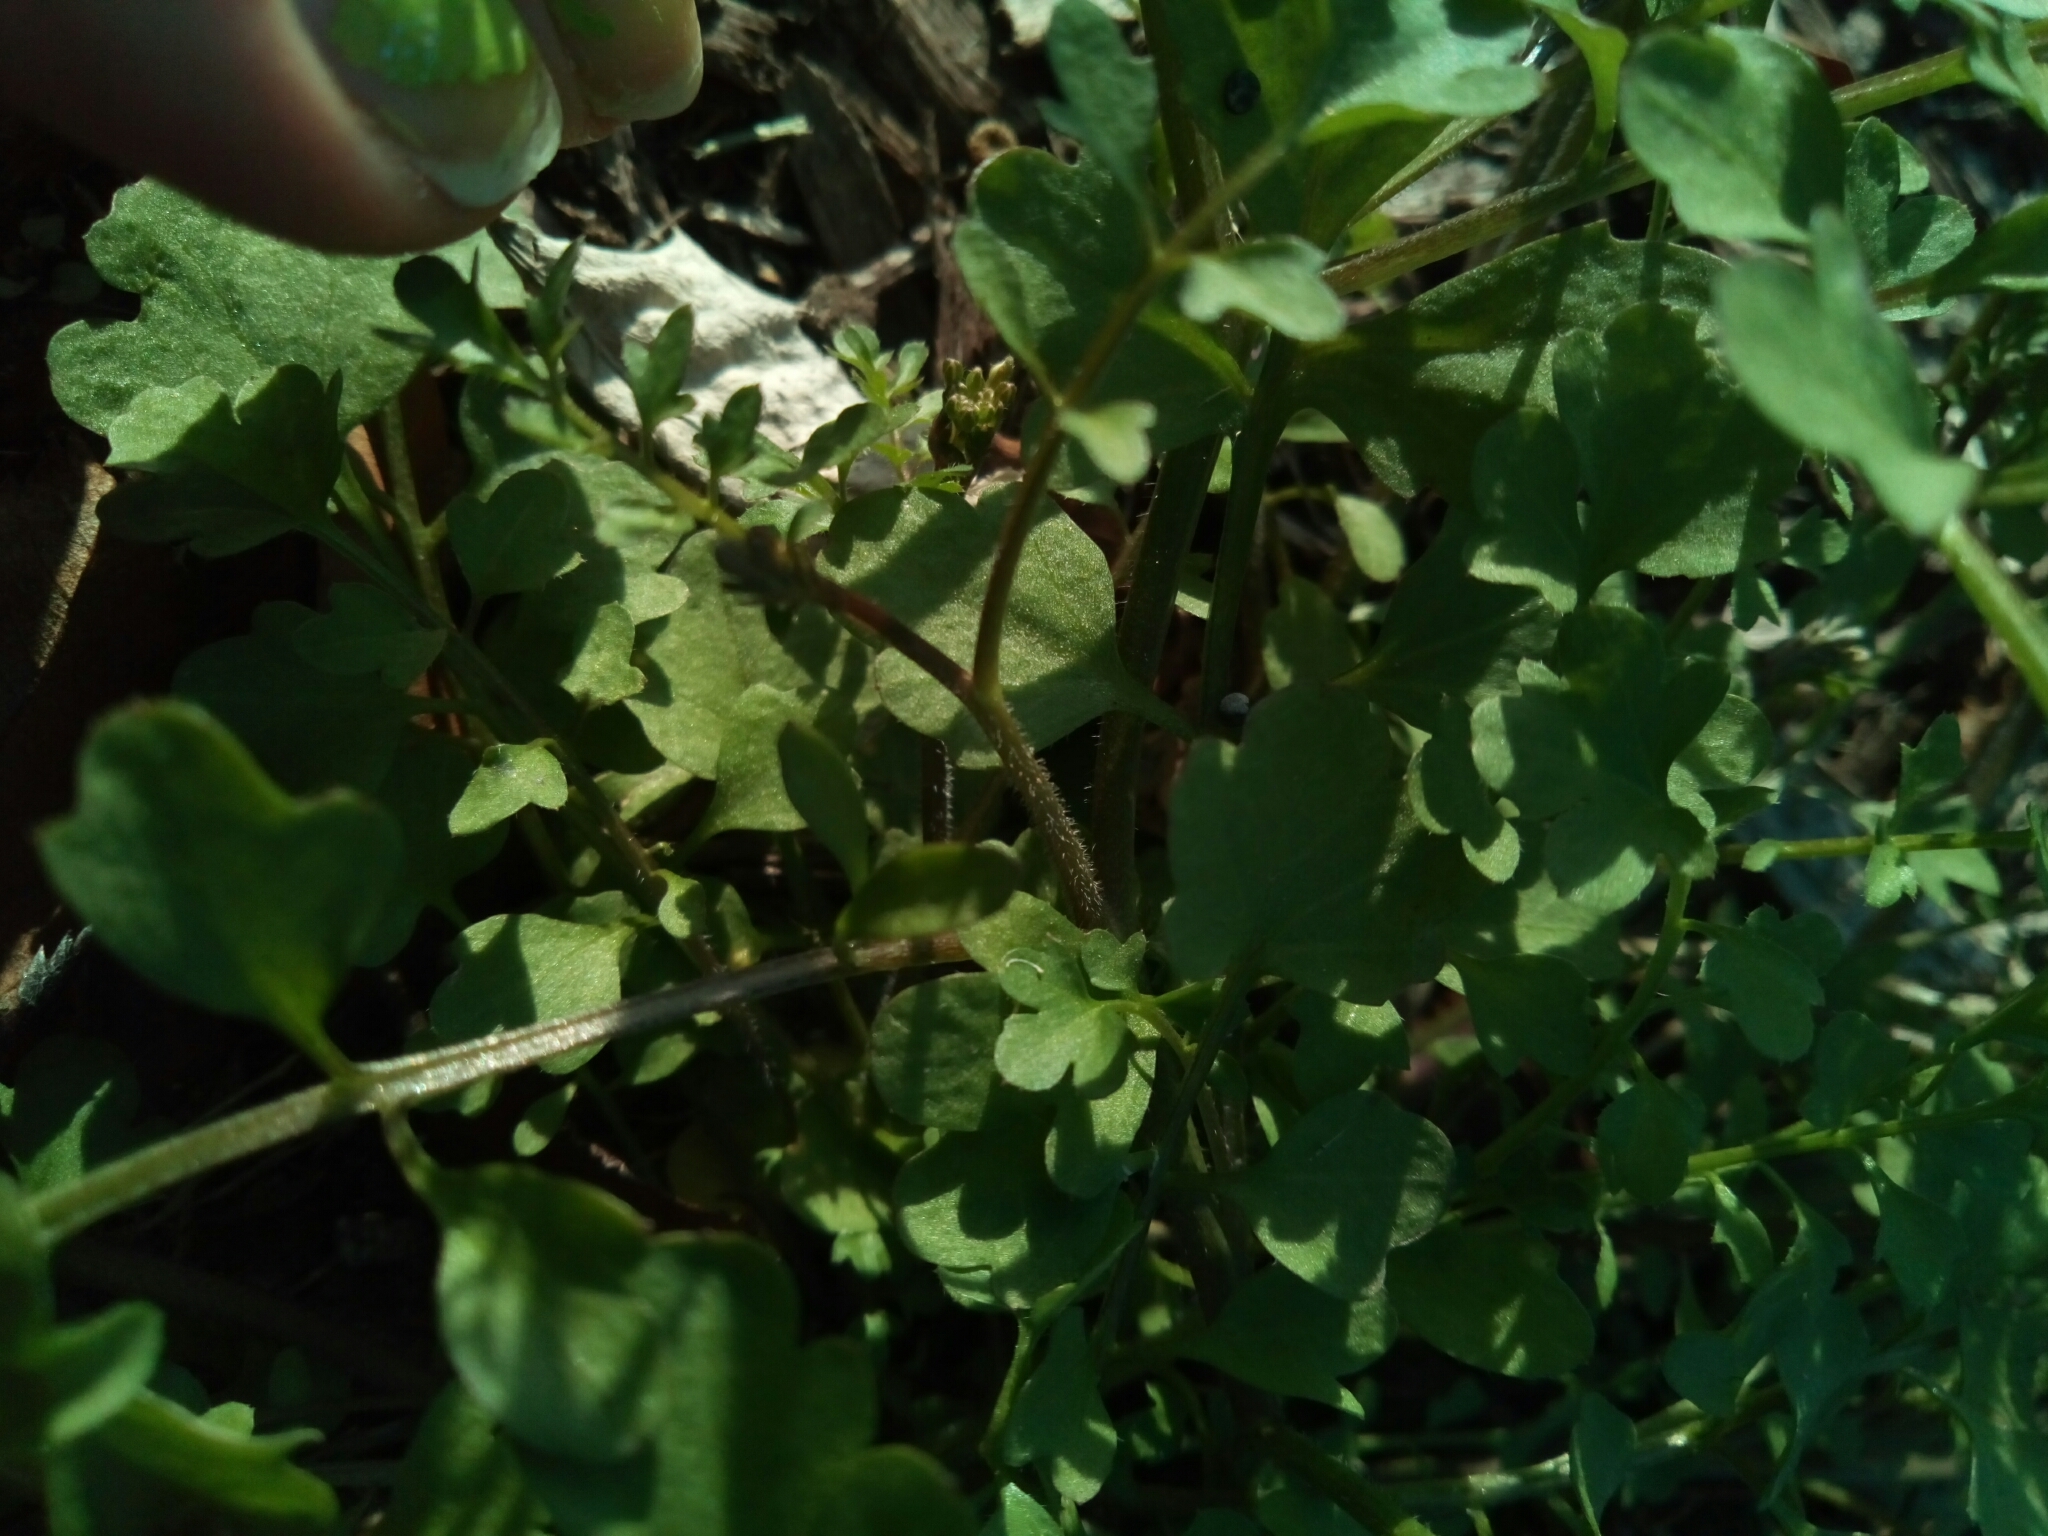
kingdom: Plantae
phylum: Tracheophyta
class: Magnoliopsida
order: Brassicales
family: Brassicaceae
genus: Cardamine
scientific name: Cardamine occulta
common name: Asian wavy bittercress
